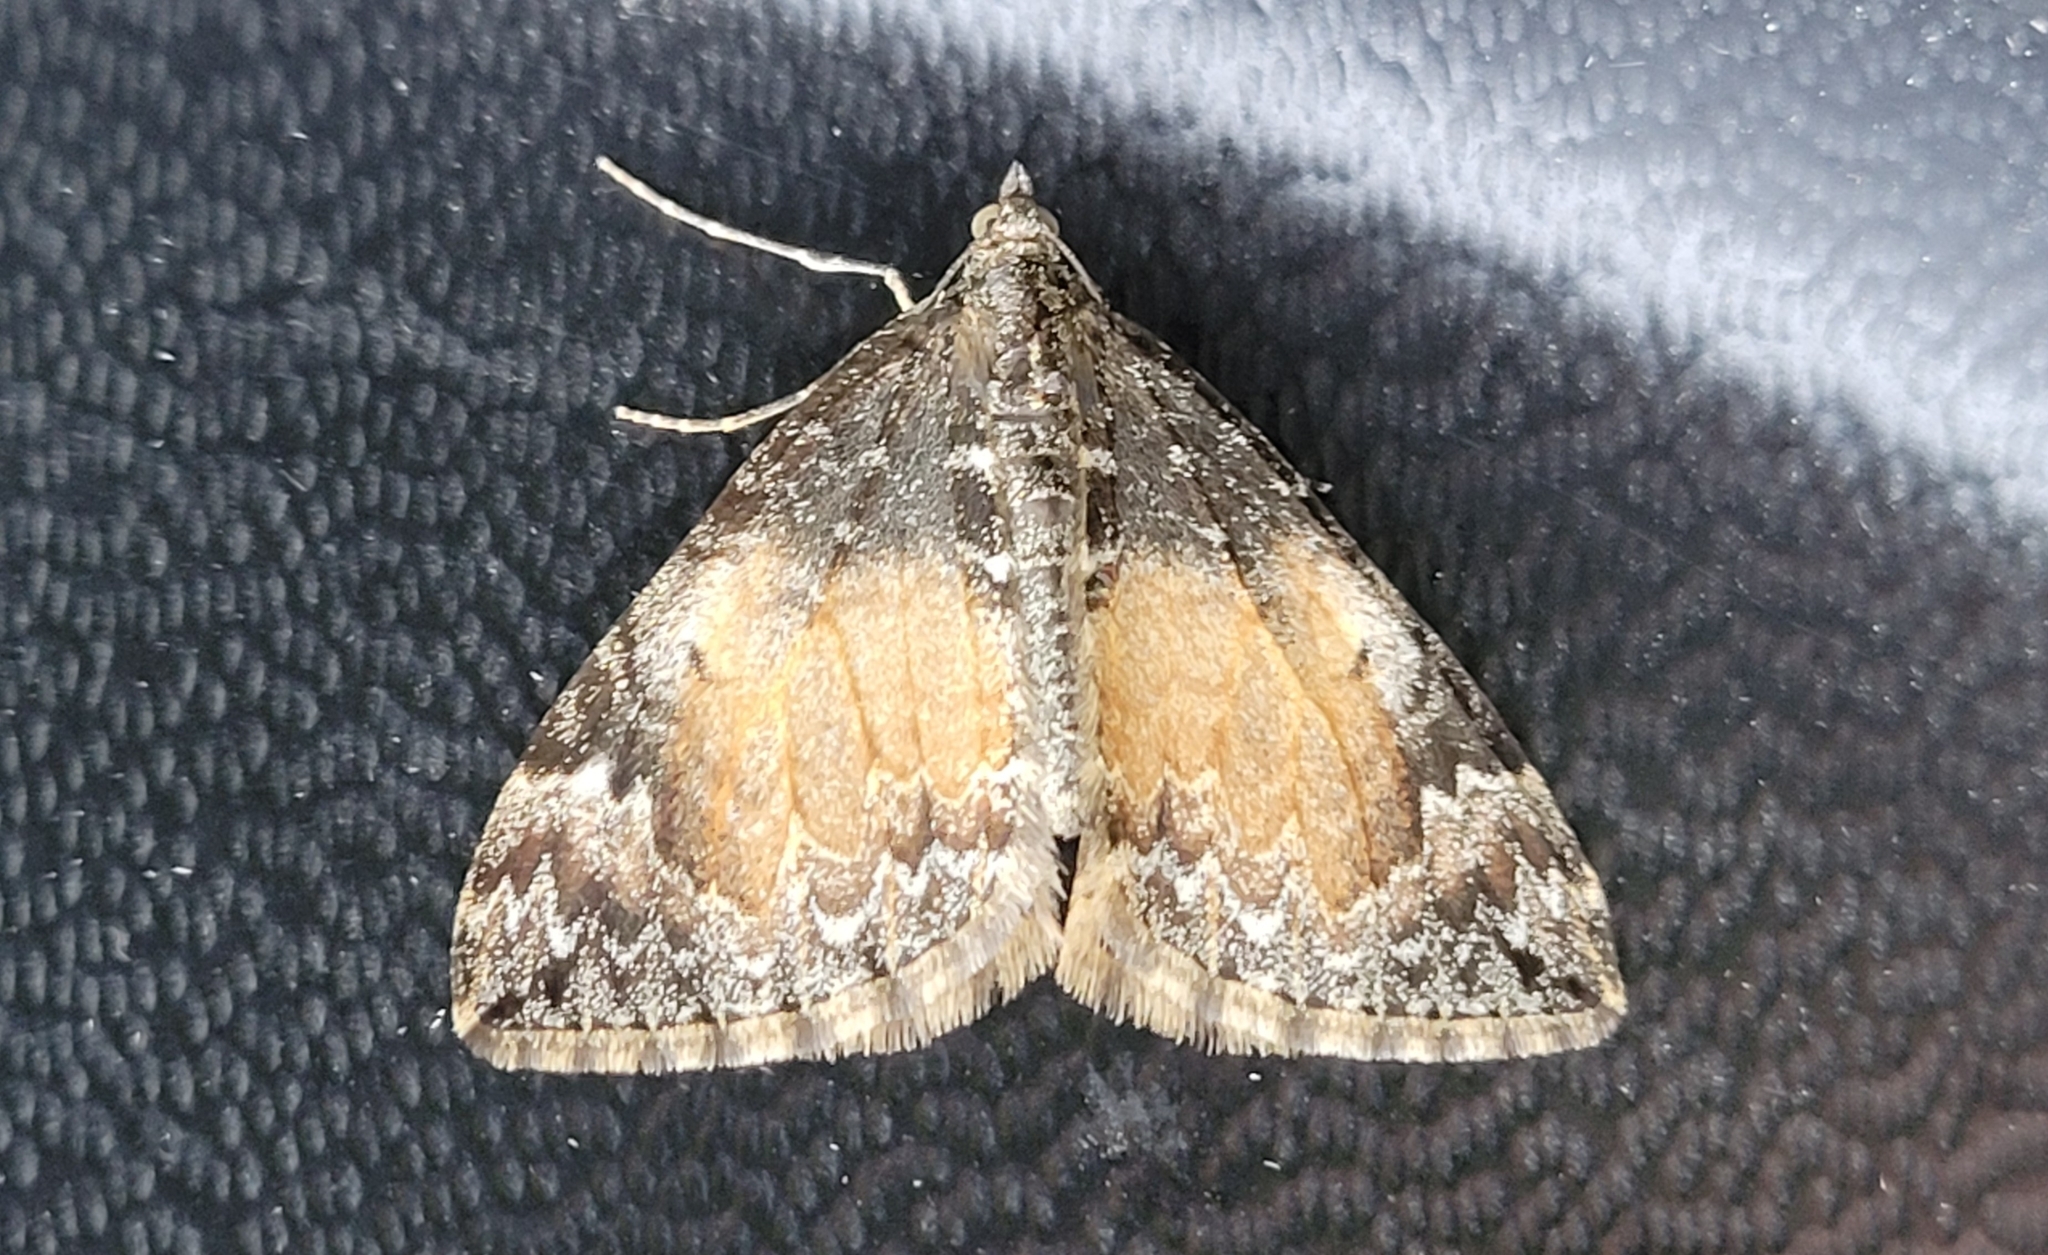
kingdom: Animalia
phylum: Arthropoda
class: Insecta
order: Lepidoptera
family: Geometridae
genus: Dysstroma
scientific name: Dysstroma truncata
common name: Common marbled carpet
